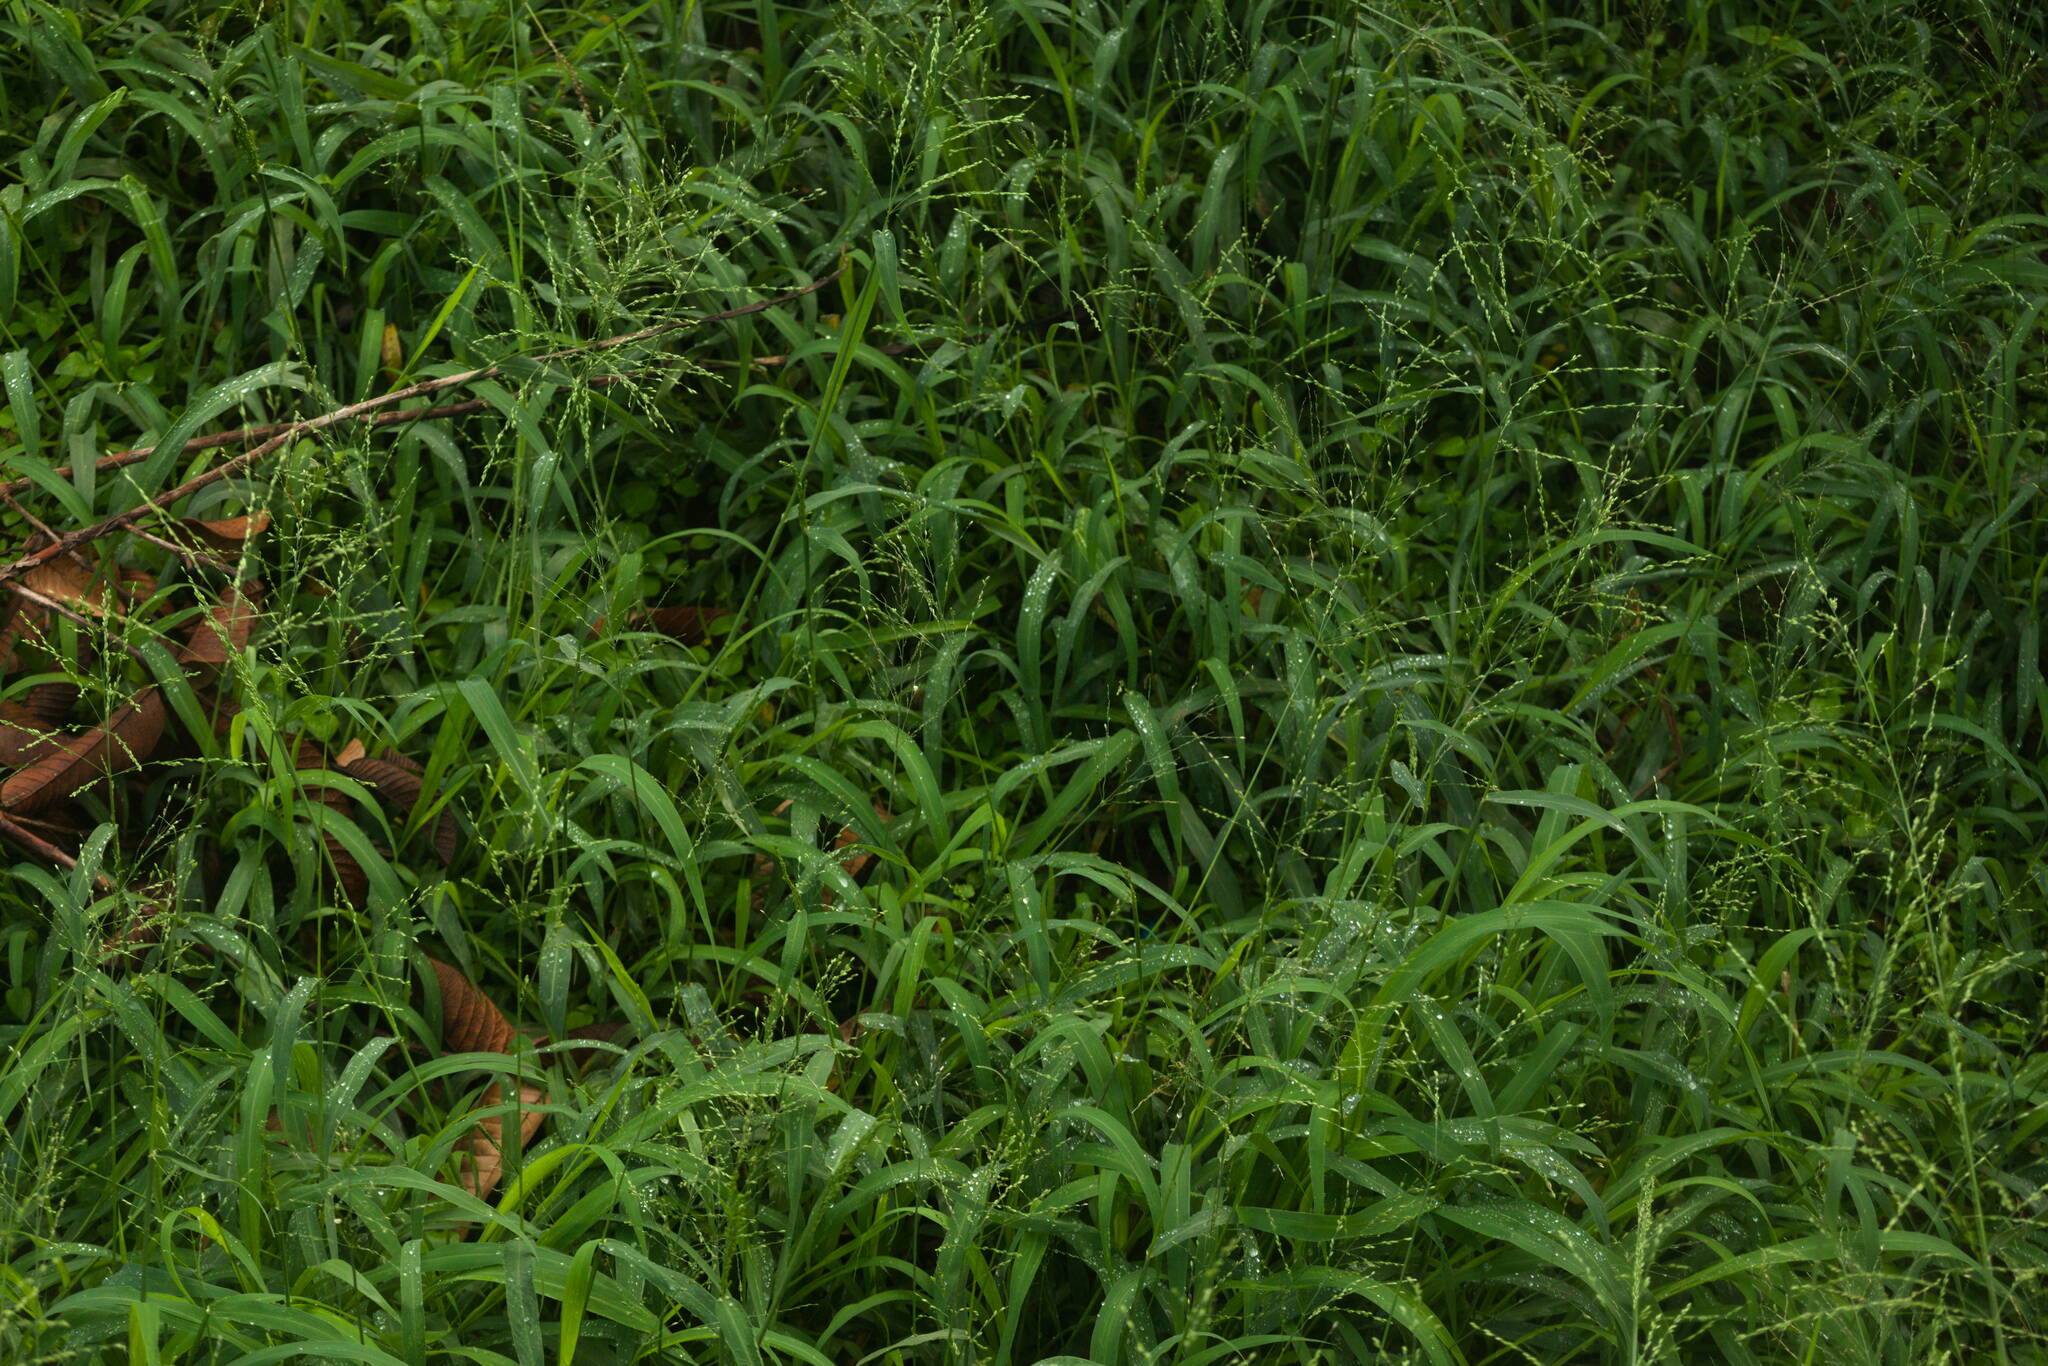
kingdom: Plantae
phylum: Tracheophyta
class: Liliopsida
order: Poales
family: Poaceae
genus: Megathyrsus
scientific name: Megathyrsus maximus
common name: Guineagrass
